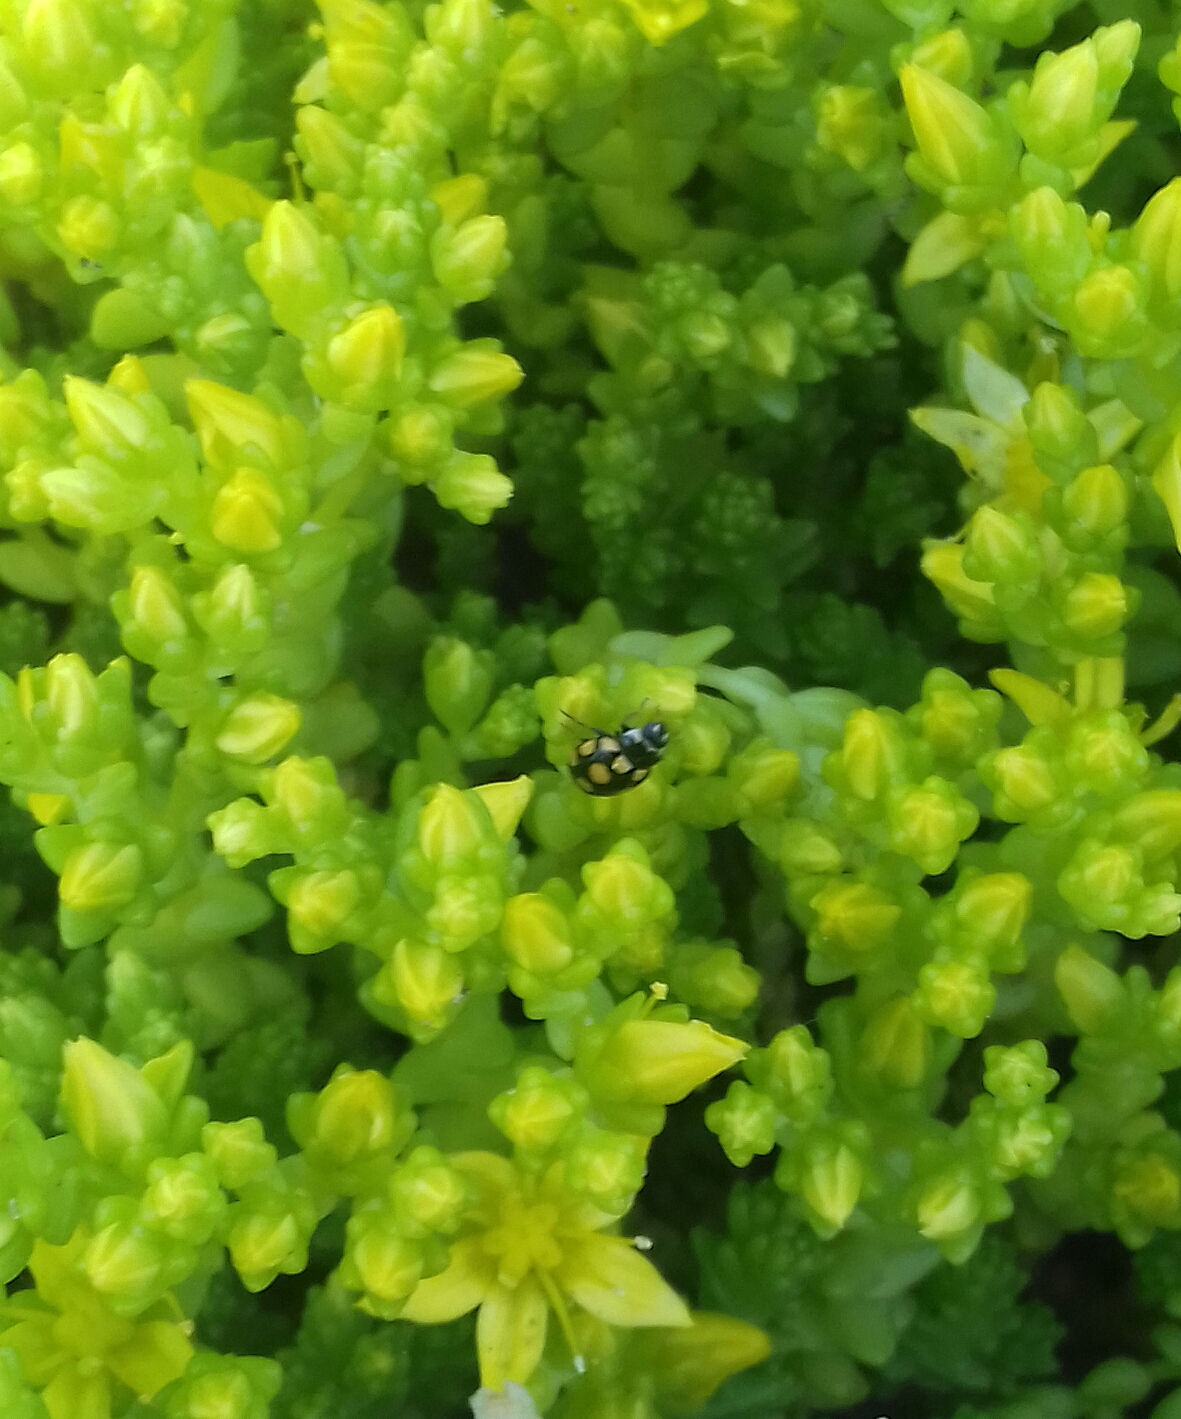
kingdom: Animalia
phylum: Arthropoda
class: Insecta
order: Coleoptera
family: Coccinellidae
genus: Coccinula
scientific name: Coccinula quatuordecimpustulata
